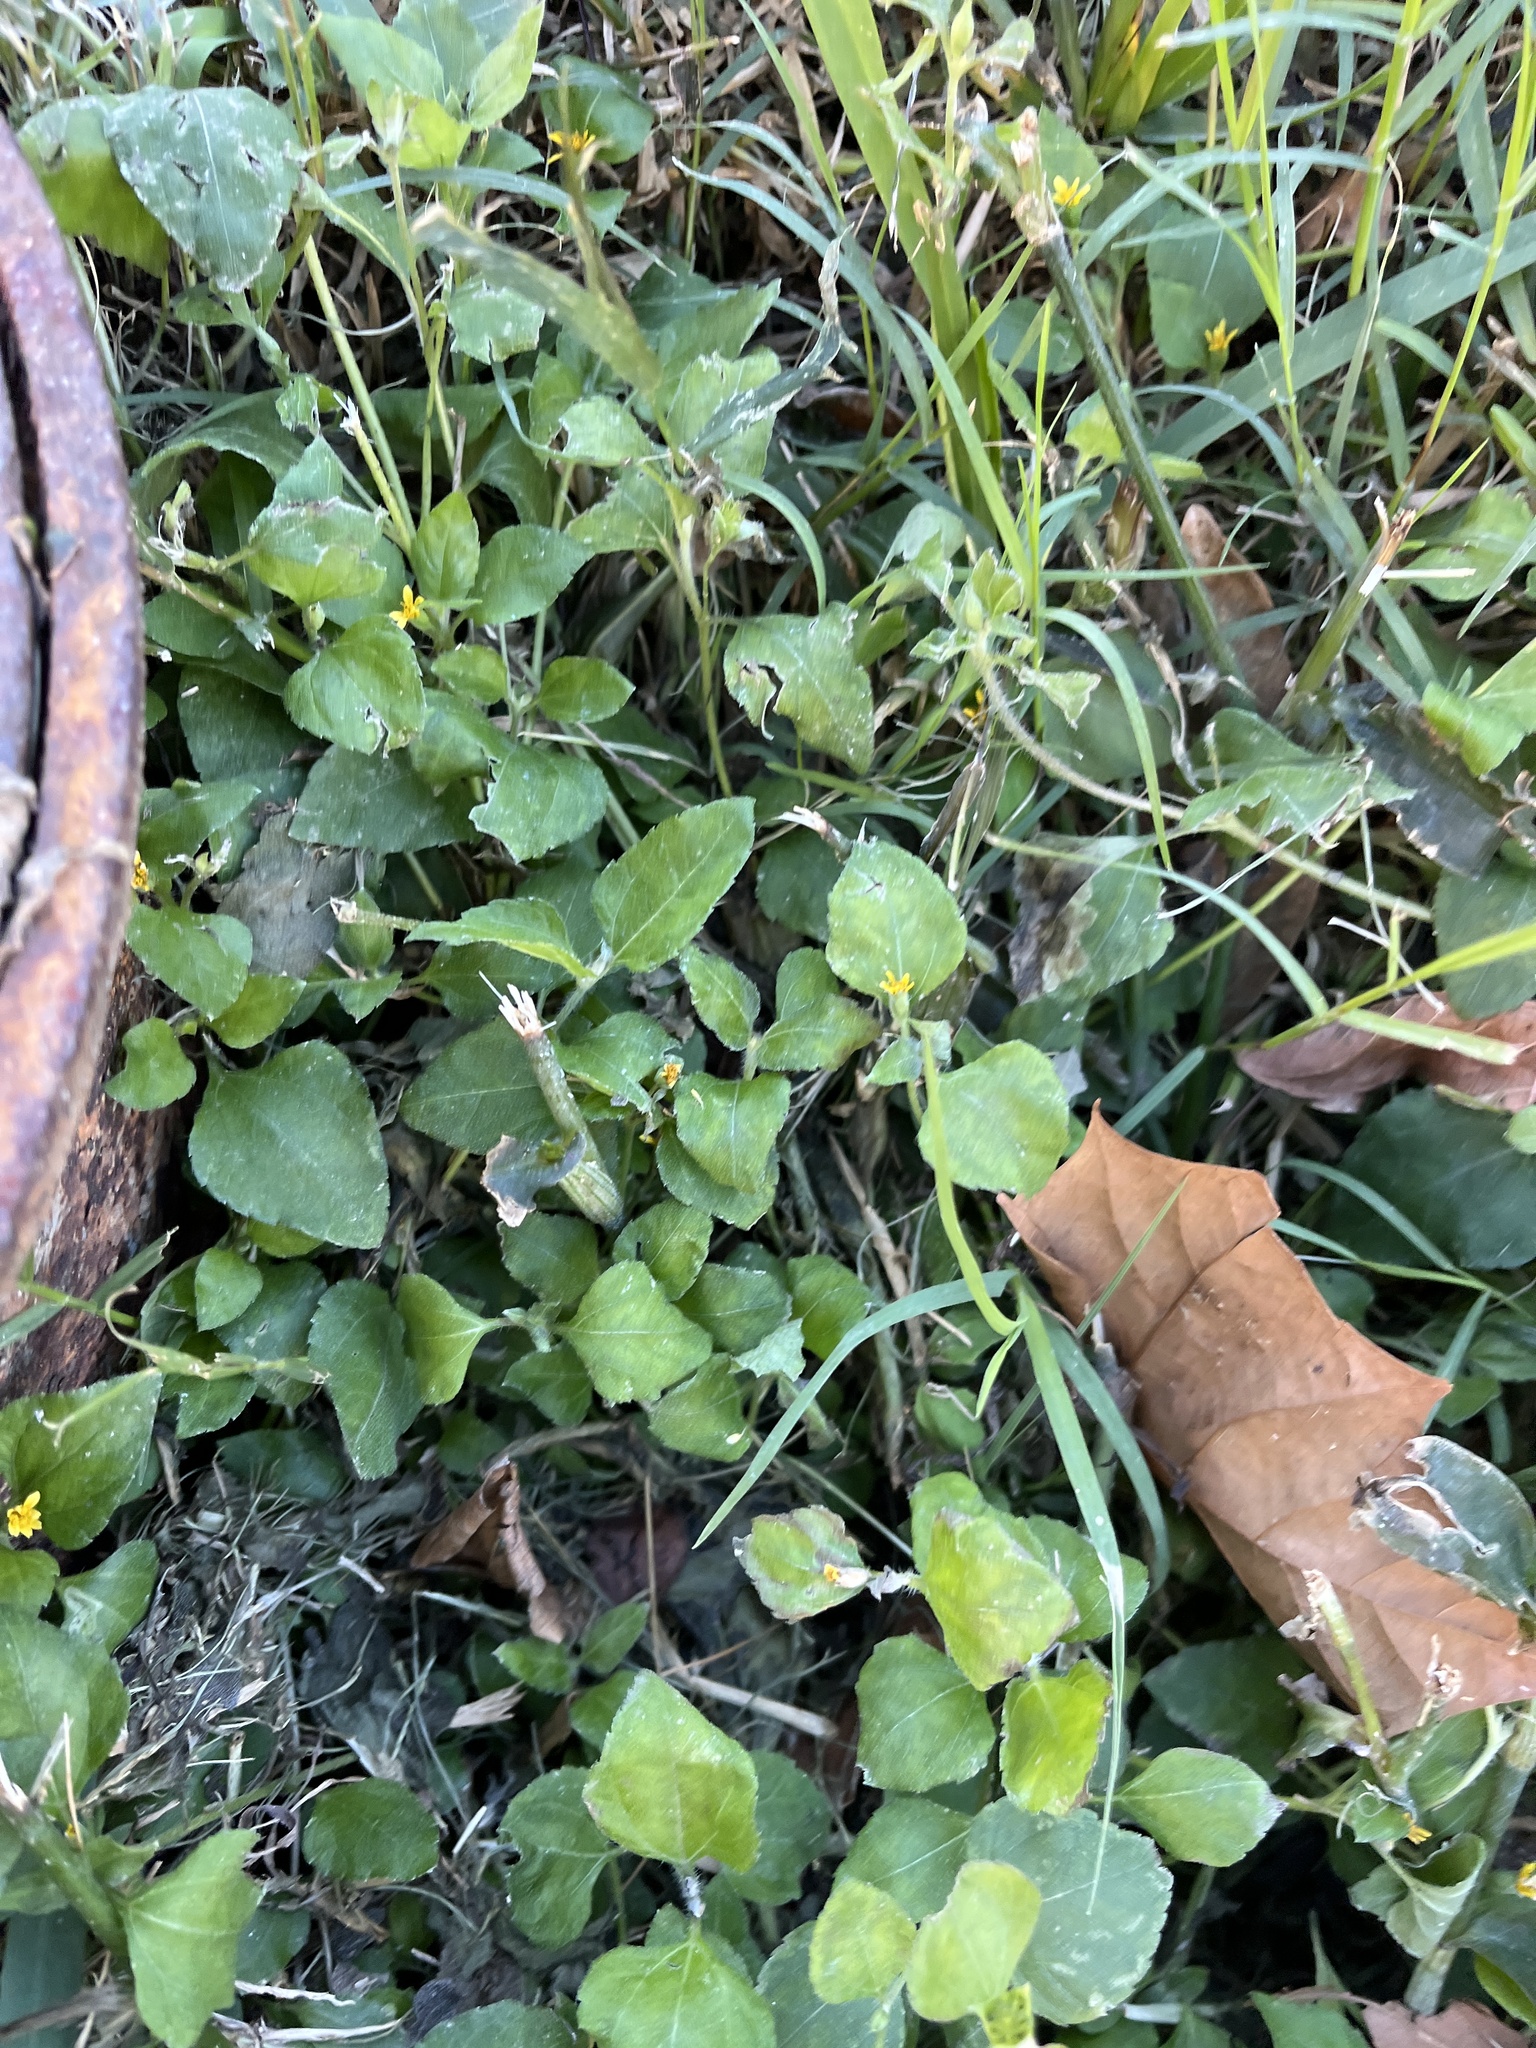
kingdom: Plantae
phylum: Tracheophyta
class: Magnoliopsida
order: Asterales
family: Asteraceae
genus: Calyptocarpus
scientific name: Calyptocarpus vialis
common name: Straggler daisy
